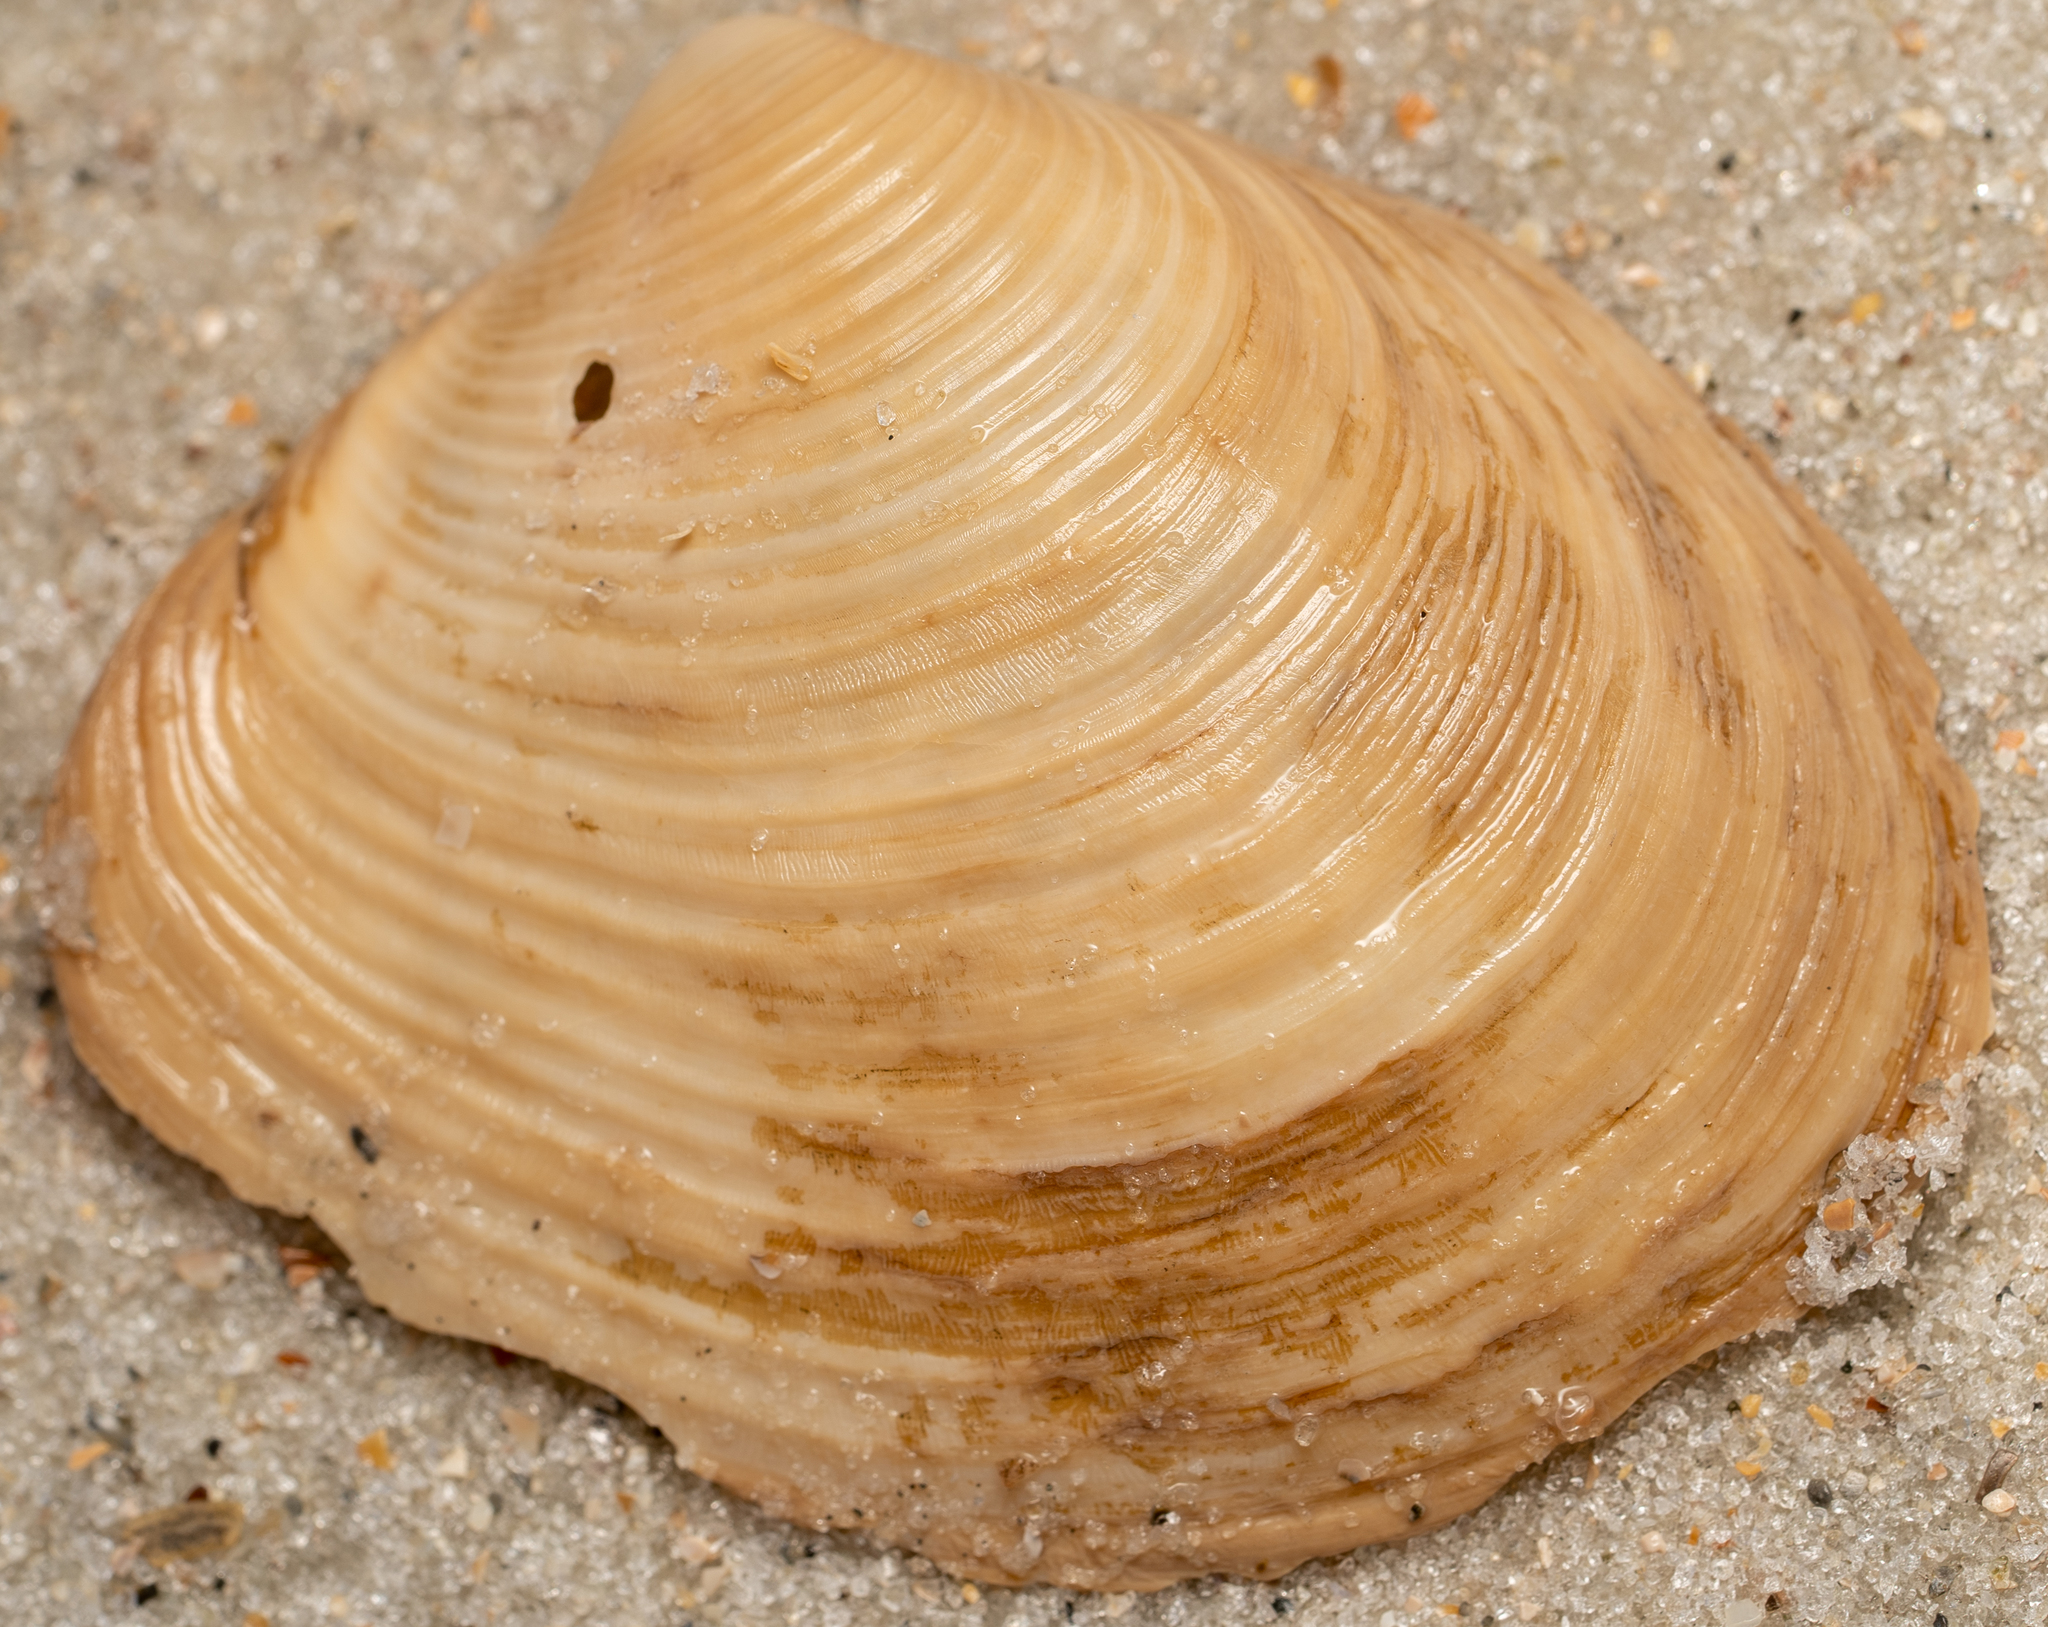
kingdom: Animalia
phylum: Mollusca
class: Bivalvia
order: Venerida
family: Anatinellidae
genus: Raeta
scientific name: Raeta plicatella
